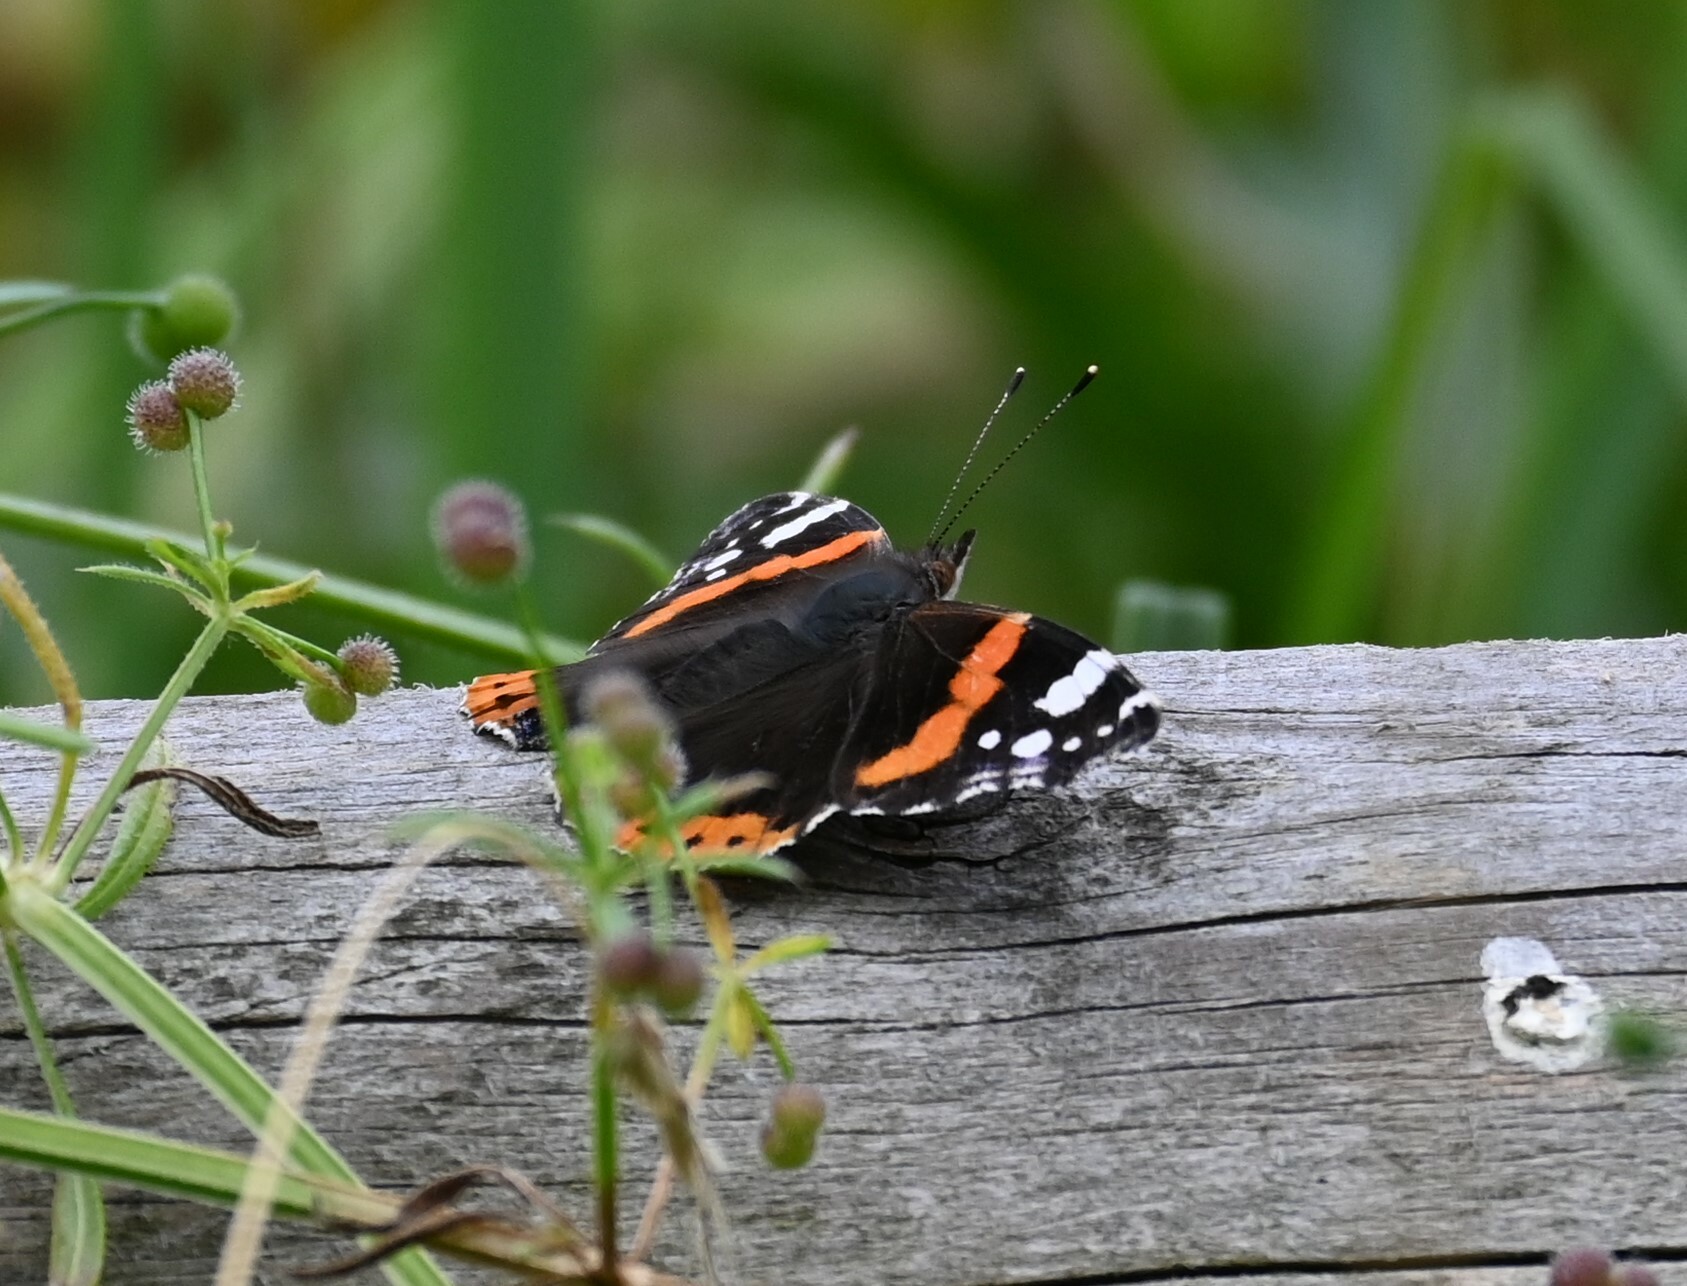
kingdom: Animalia
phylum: Arthropoda
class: Insecta
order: Lepidoptera
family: Nymphalidae
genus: Vanessa
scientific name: Vanessa atalanta
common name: Red admiral
